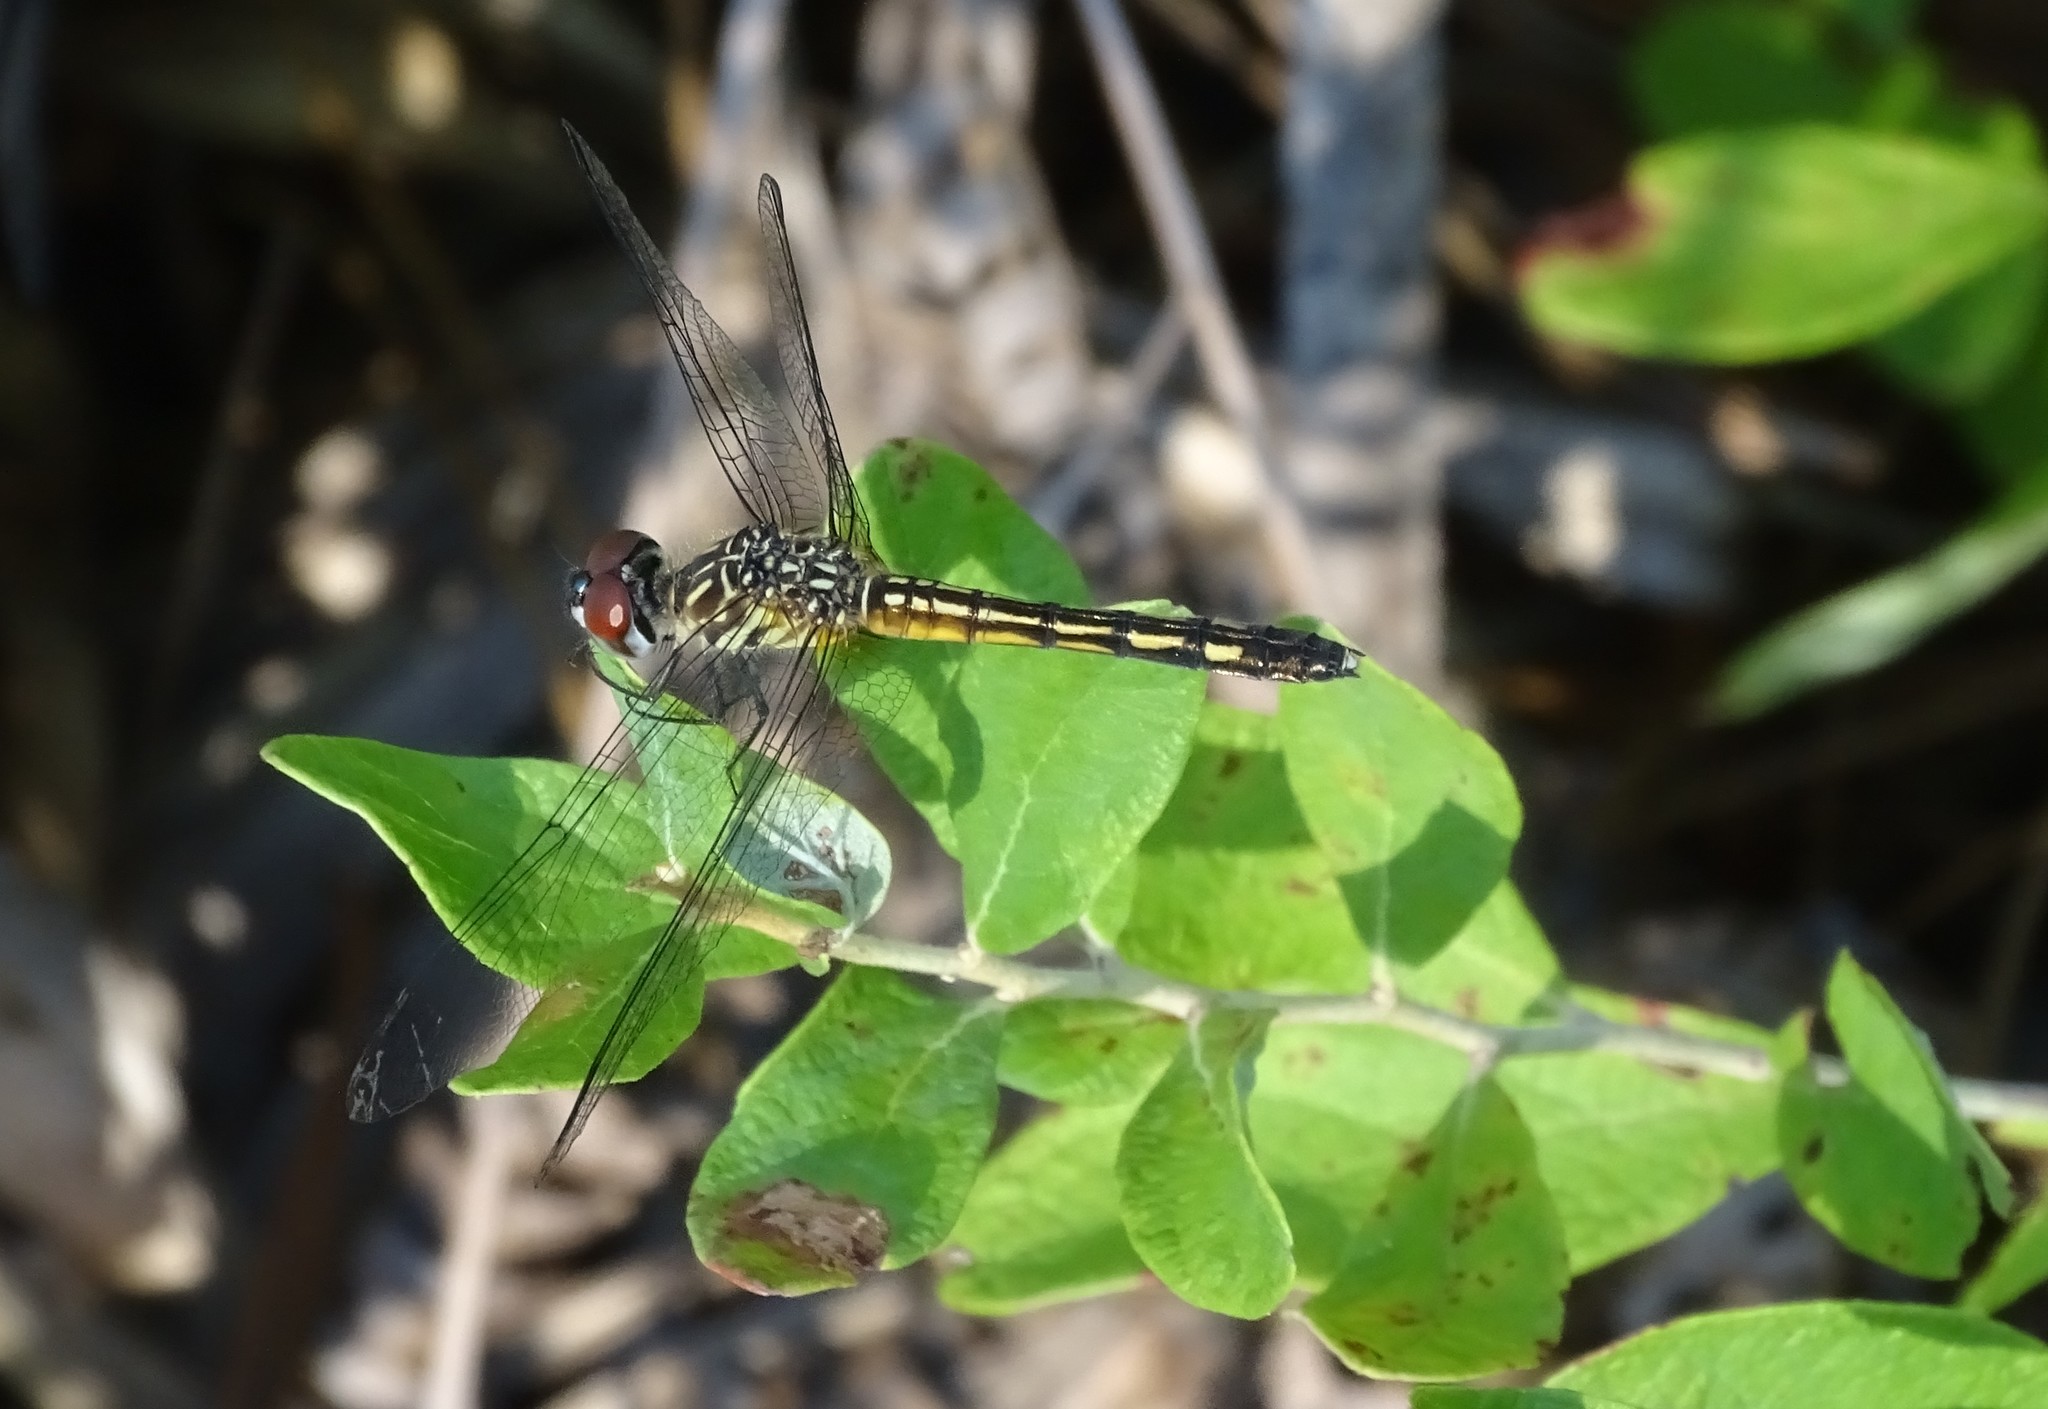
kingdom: Animalia
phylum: Arthropoda
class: Insecta
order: Odonata
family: Libellulidae
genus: Pachydiplax
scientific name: Pachydiplax longipennis
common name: Blue dasher
